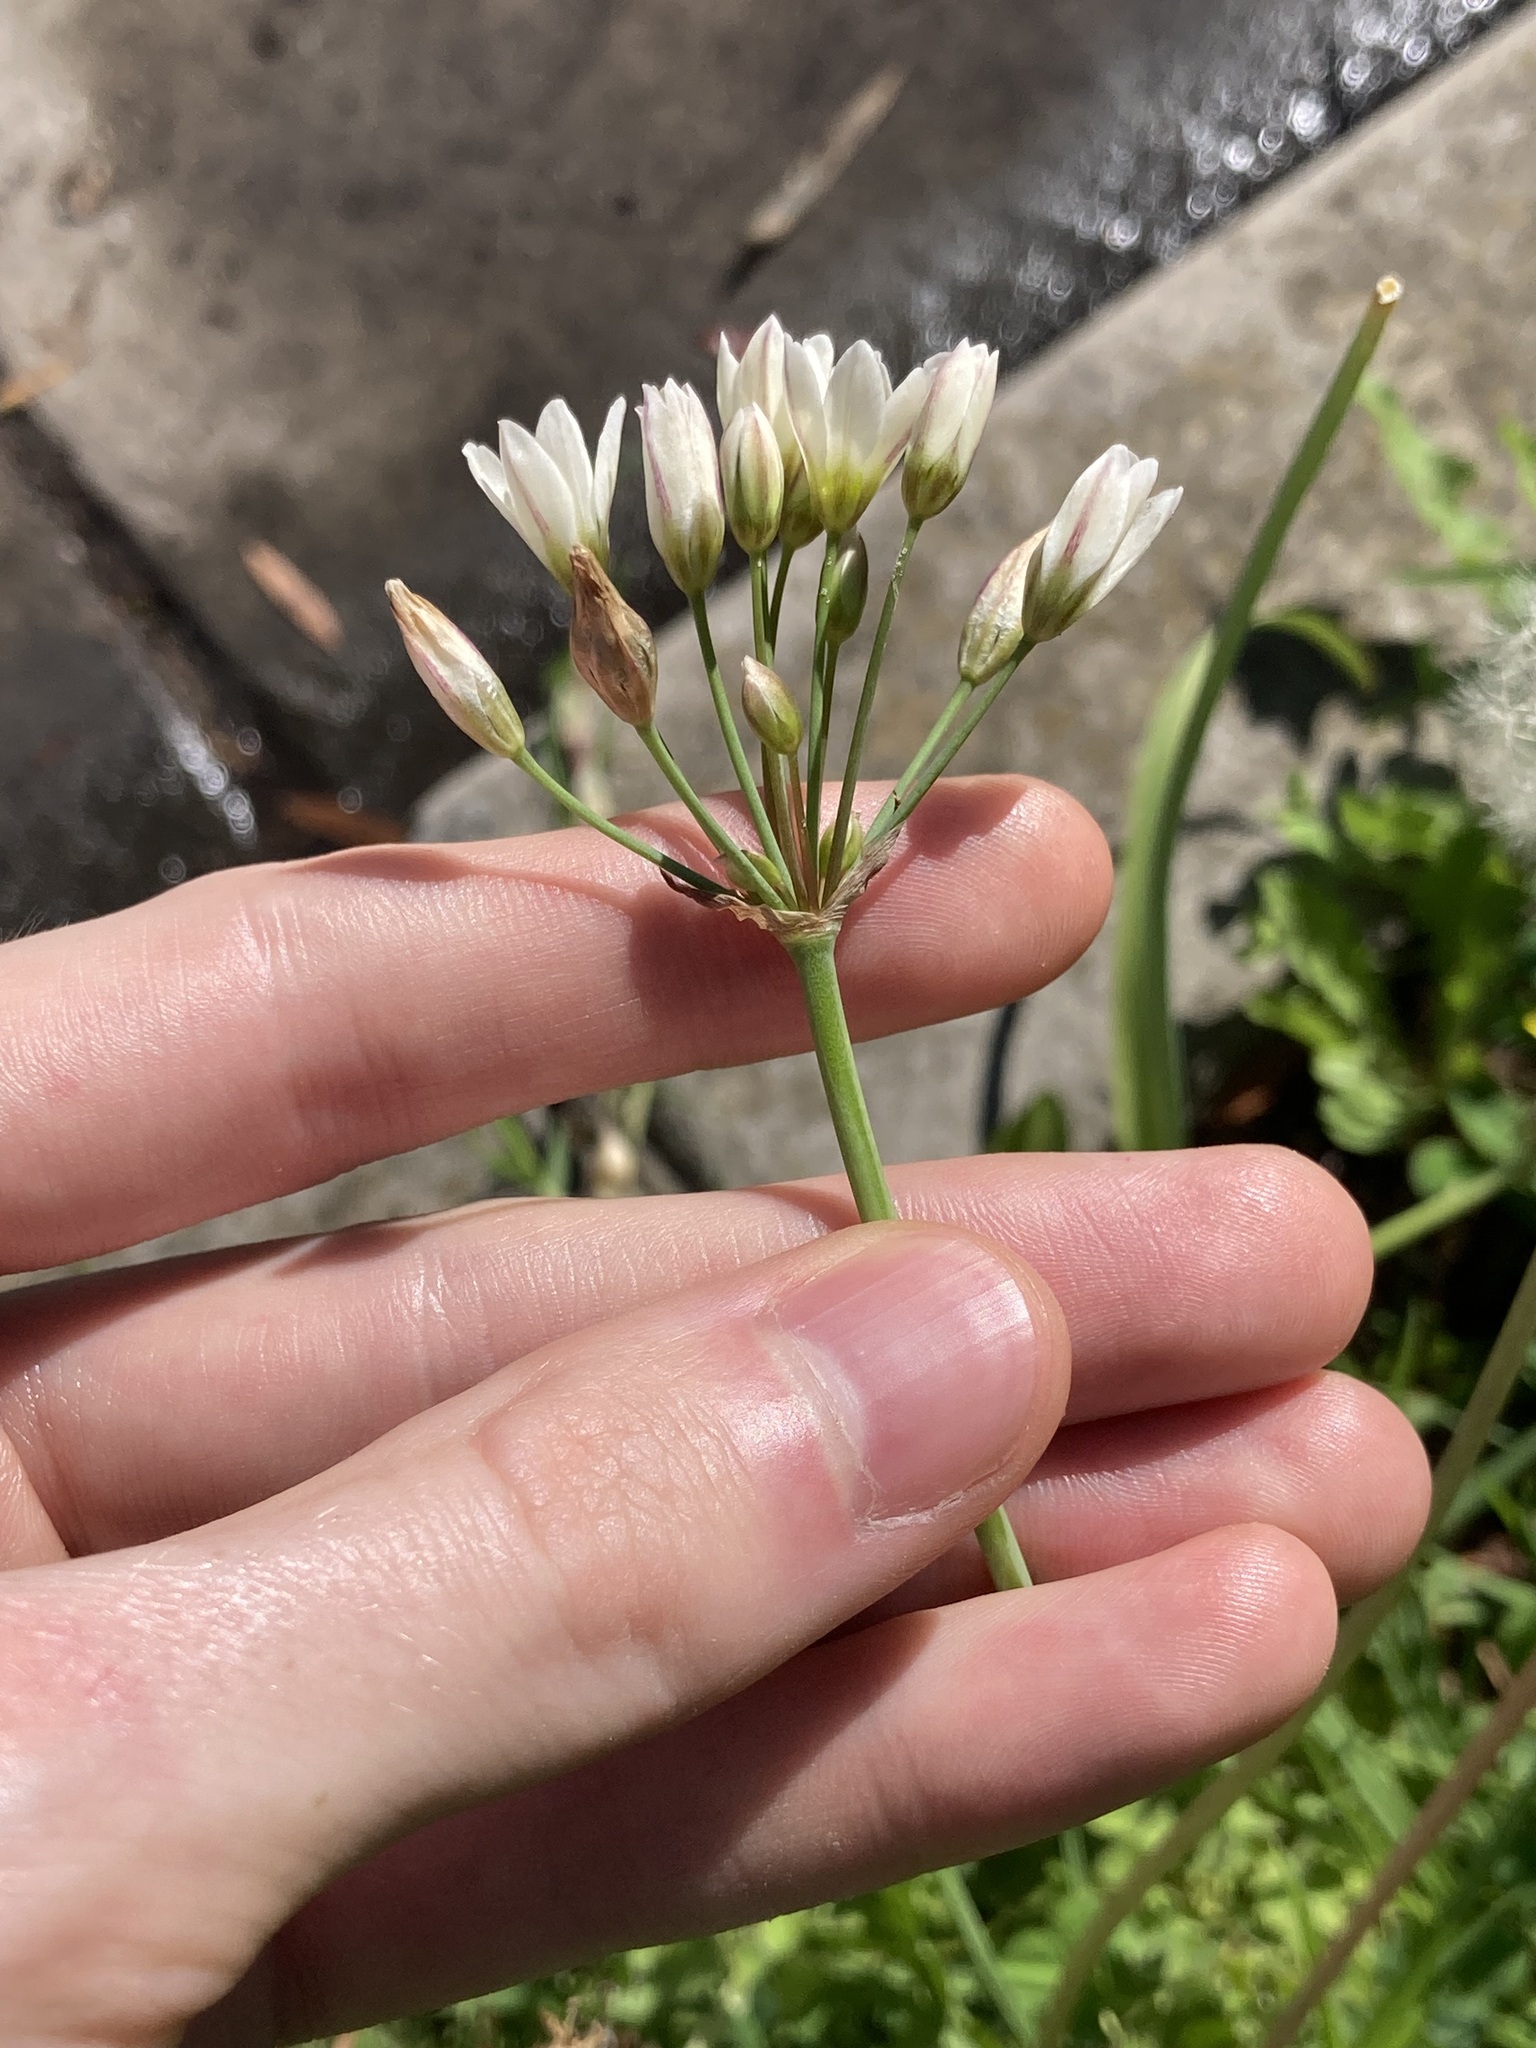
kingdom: Plantae
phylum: Tracheophyta
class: Liliopsida
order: Asparagales
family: Amaryllidaceae
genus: Nothoscordum
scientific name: Nothoscordum gracile
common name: Slender false garlic
